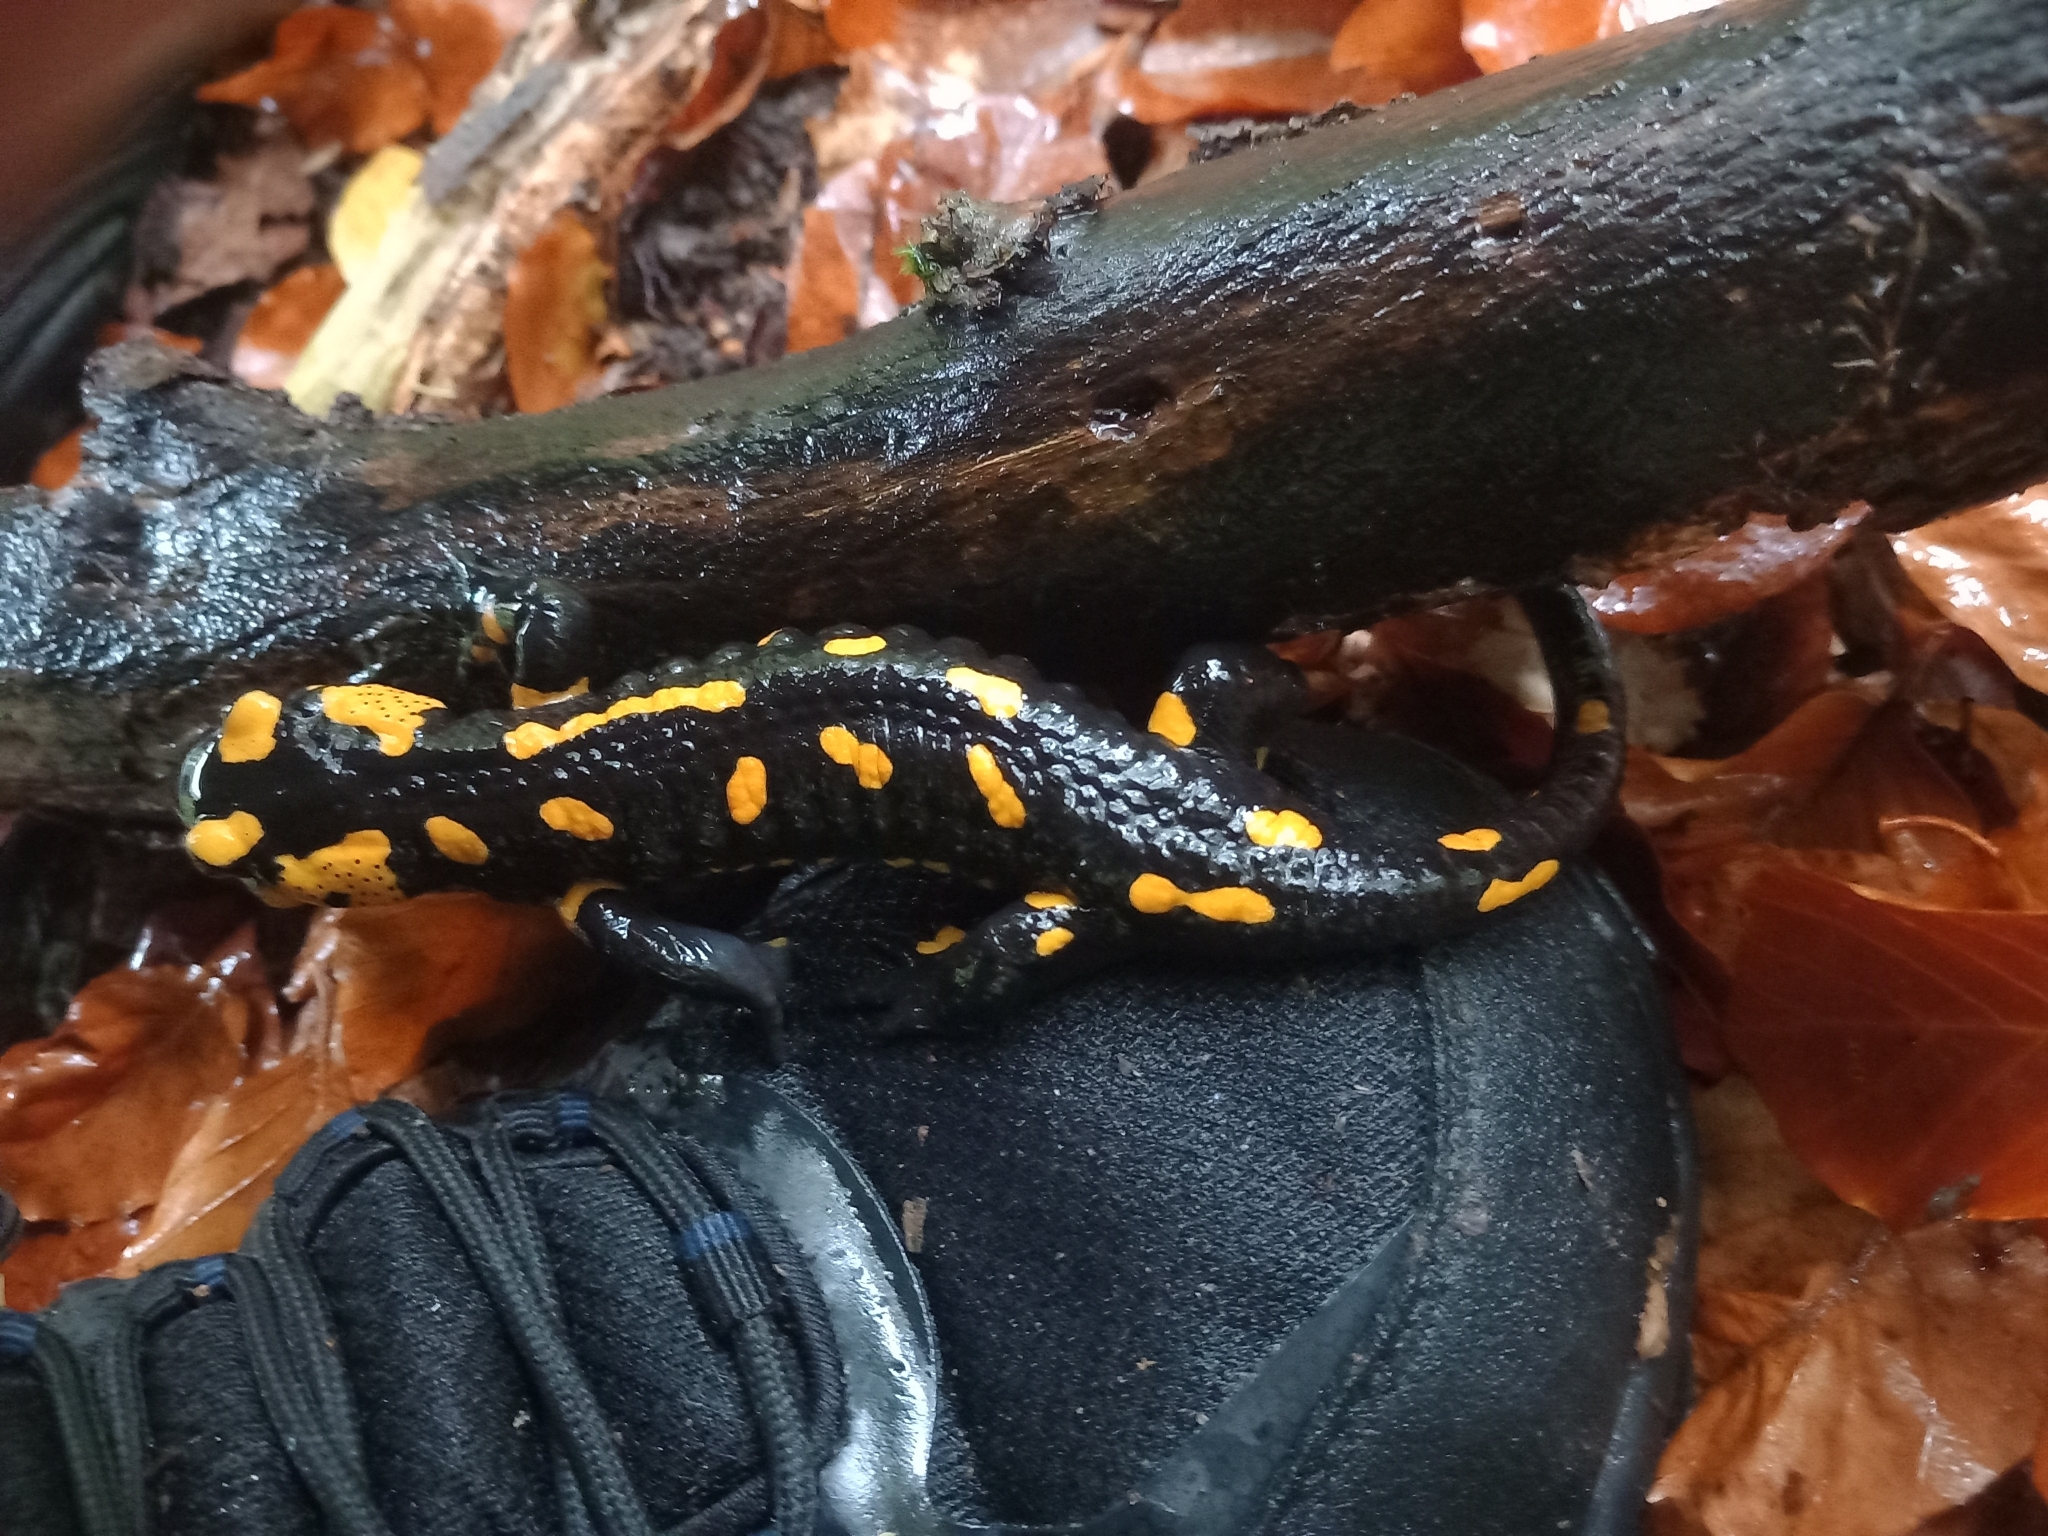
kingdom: Animalia
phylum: Chordata
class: Amphibia
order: Caudata
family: Salamandridae
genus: Salamandra
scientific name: Salamandra salamandra
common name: Fire salamander
